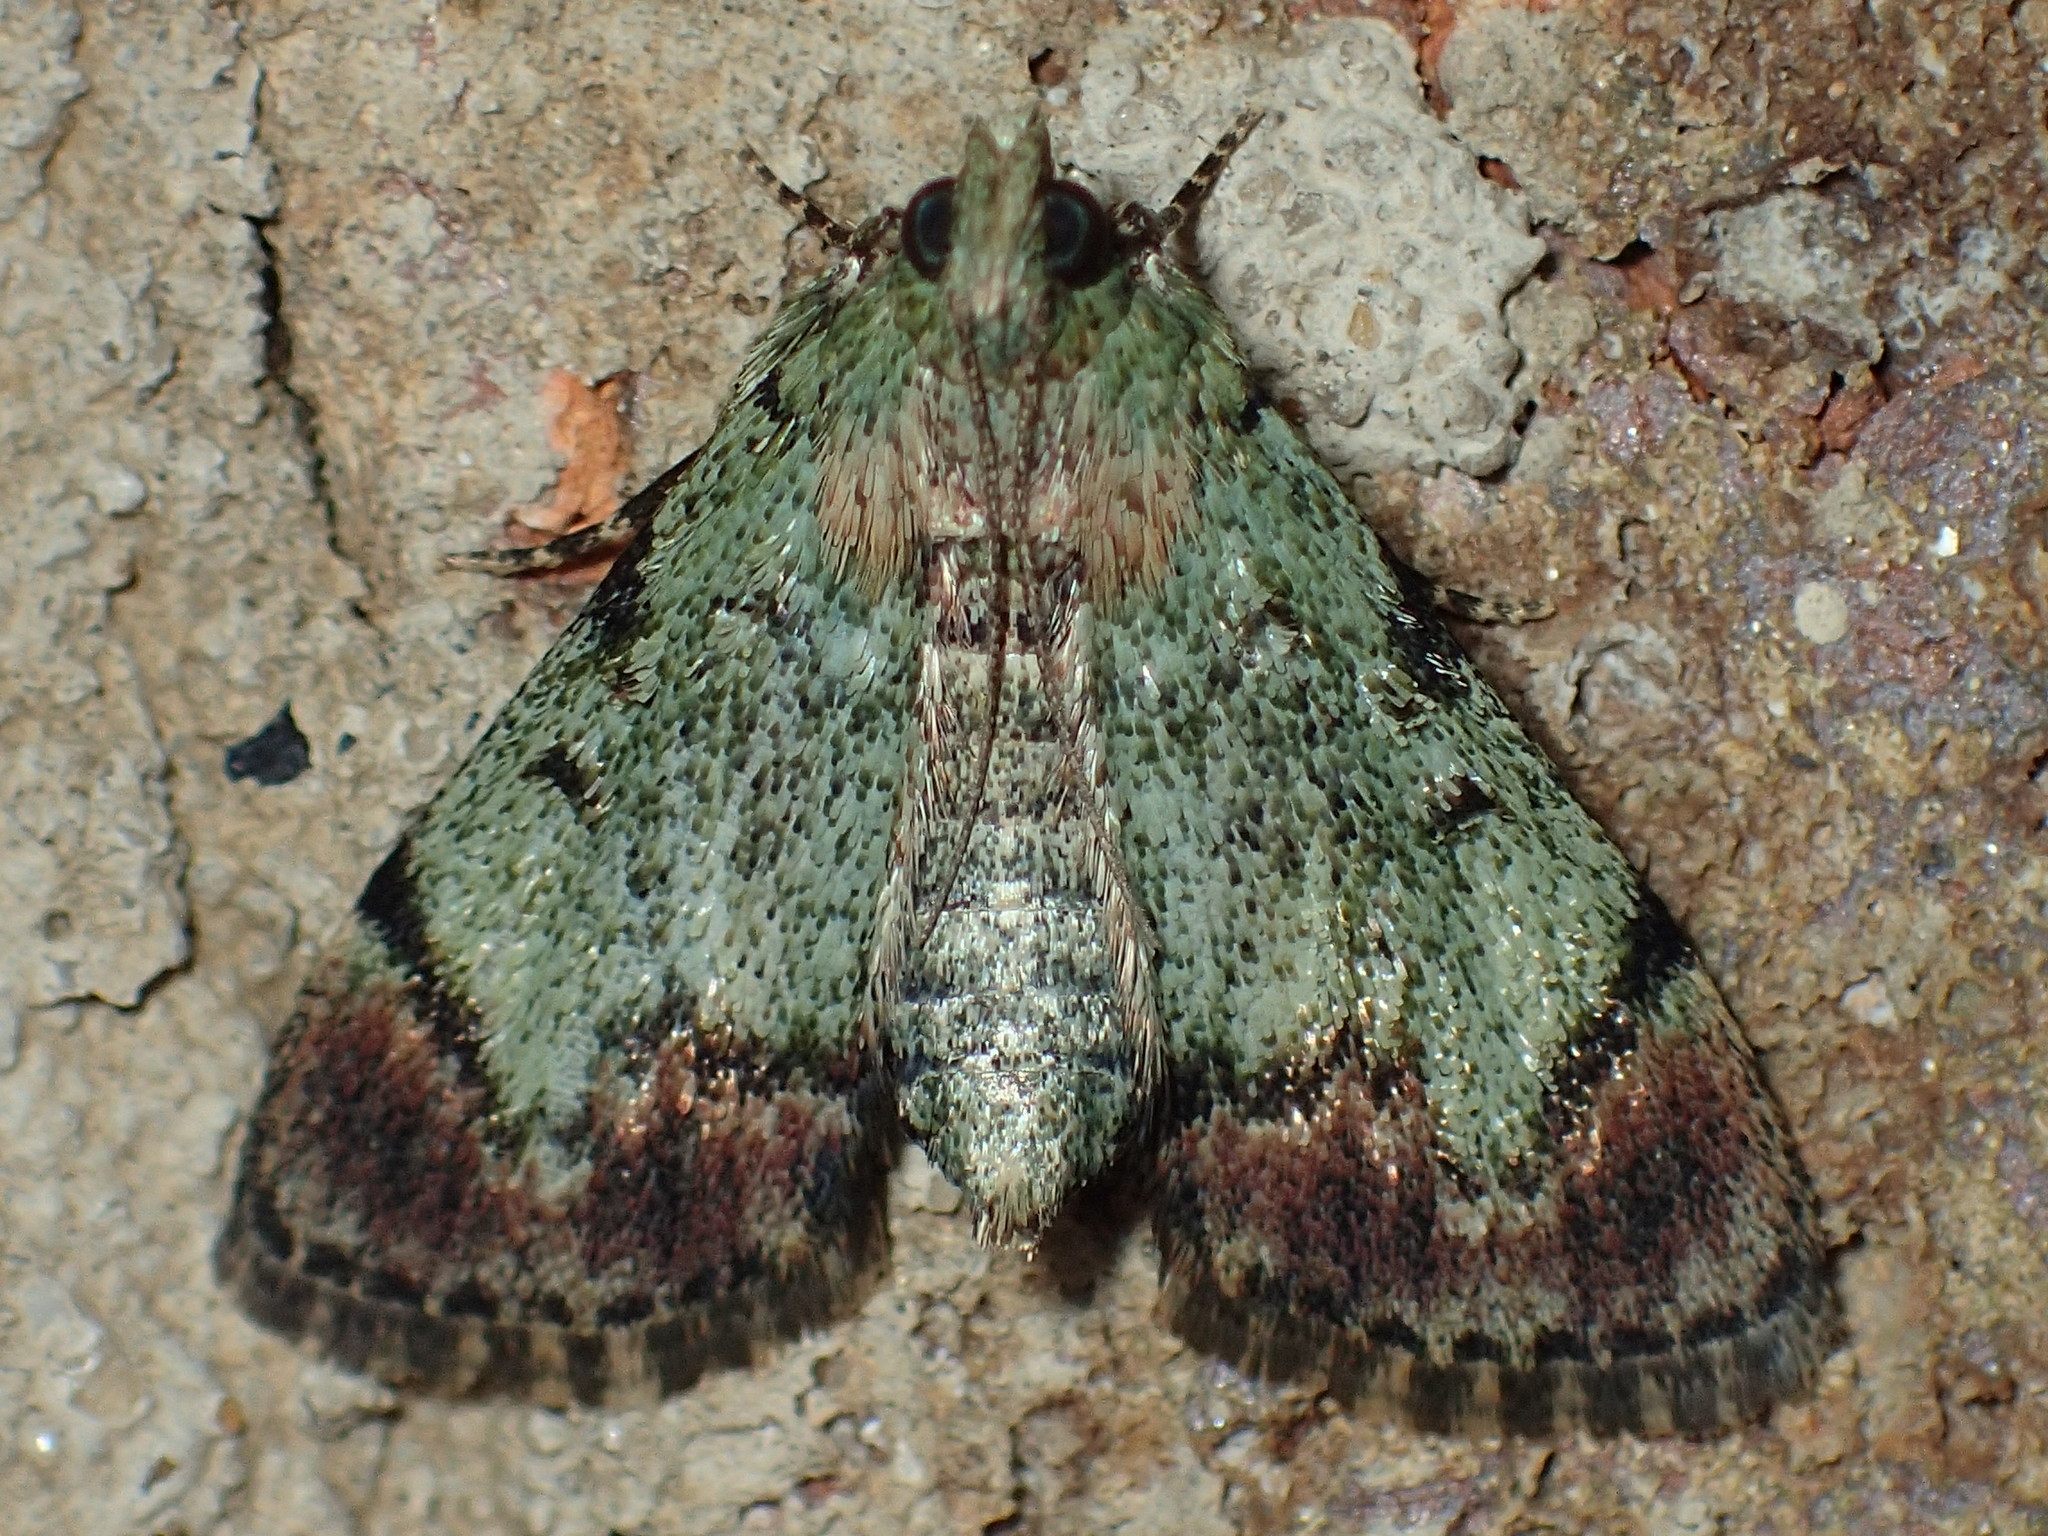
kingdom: Animalia
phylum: Arthropoda
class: Insecta
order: Lepidoptera
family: Pyralidae
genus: Epipaschia
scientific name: Epipaschia superatalis
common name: Dimorphic macalla moth
